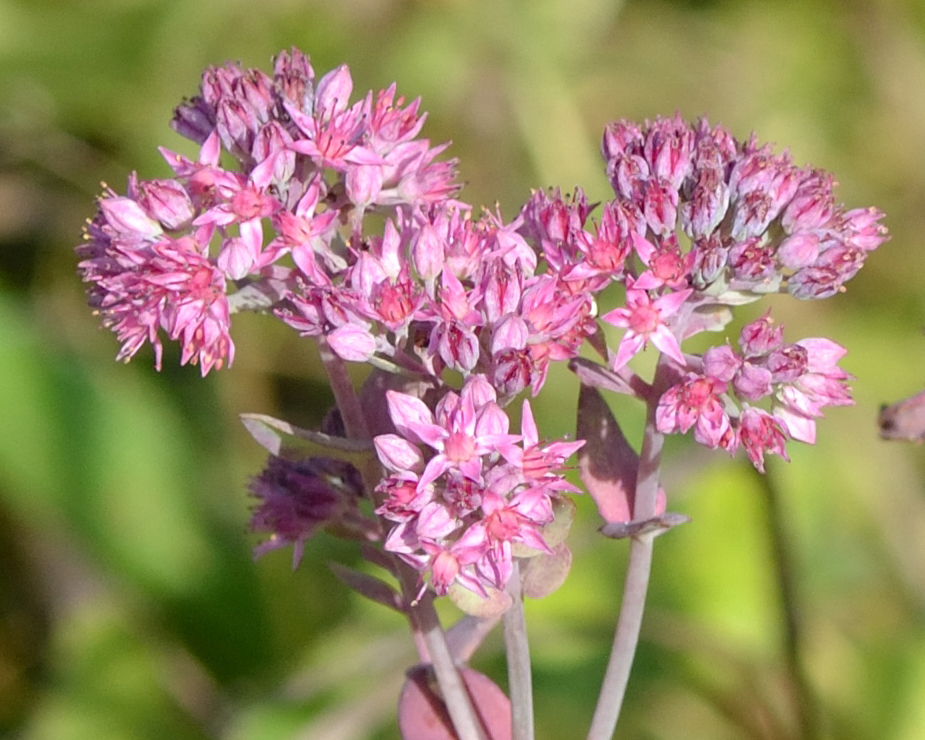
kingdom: Plantae
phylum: Tracheophyta
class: Magnoliopsida
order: Saxifragales
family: Crassulaceae
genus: Hylotelephium
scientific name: Hylotelephium telephium
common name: Live-forever
